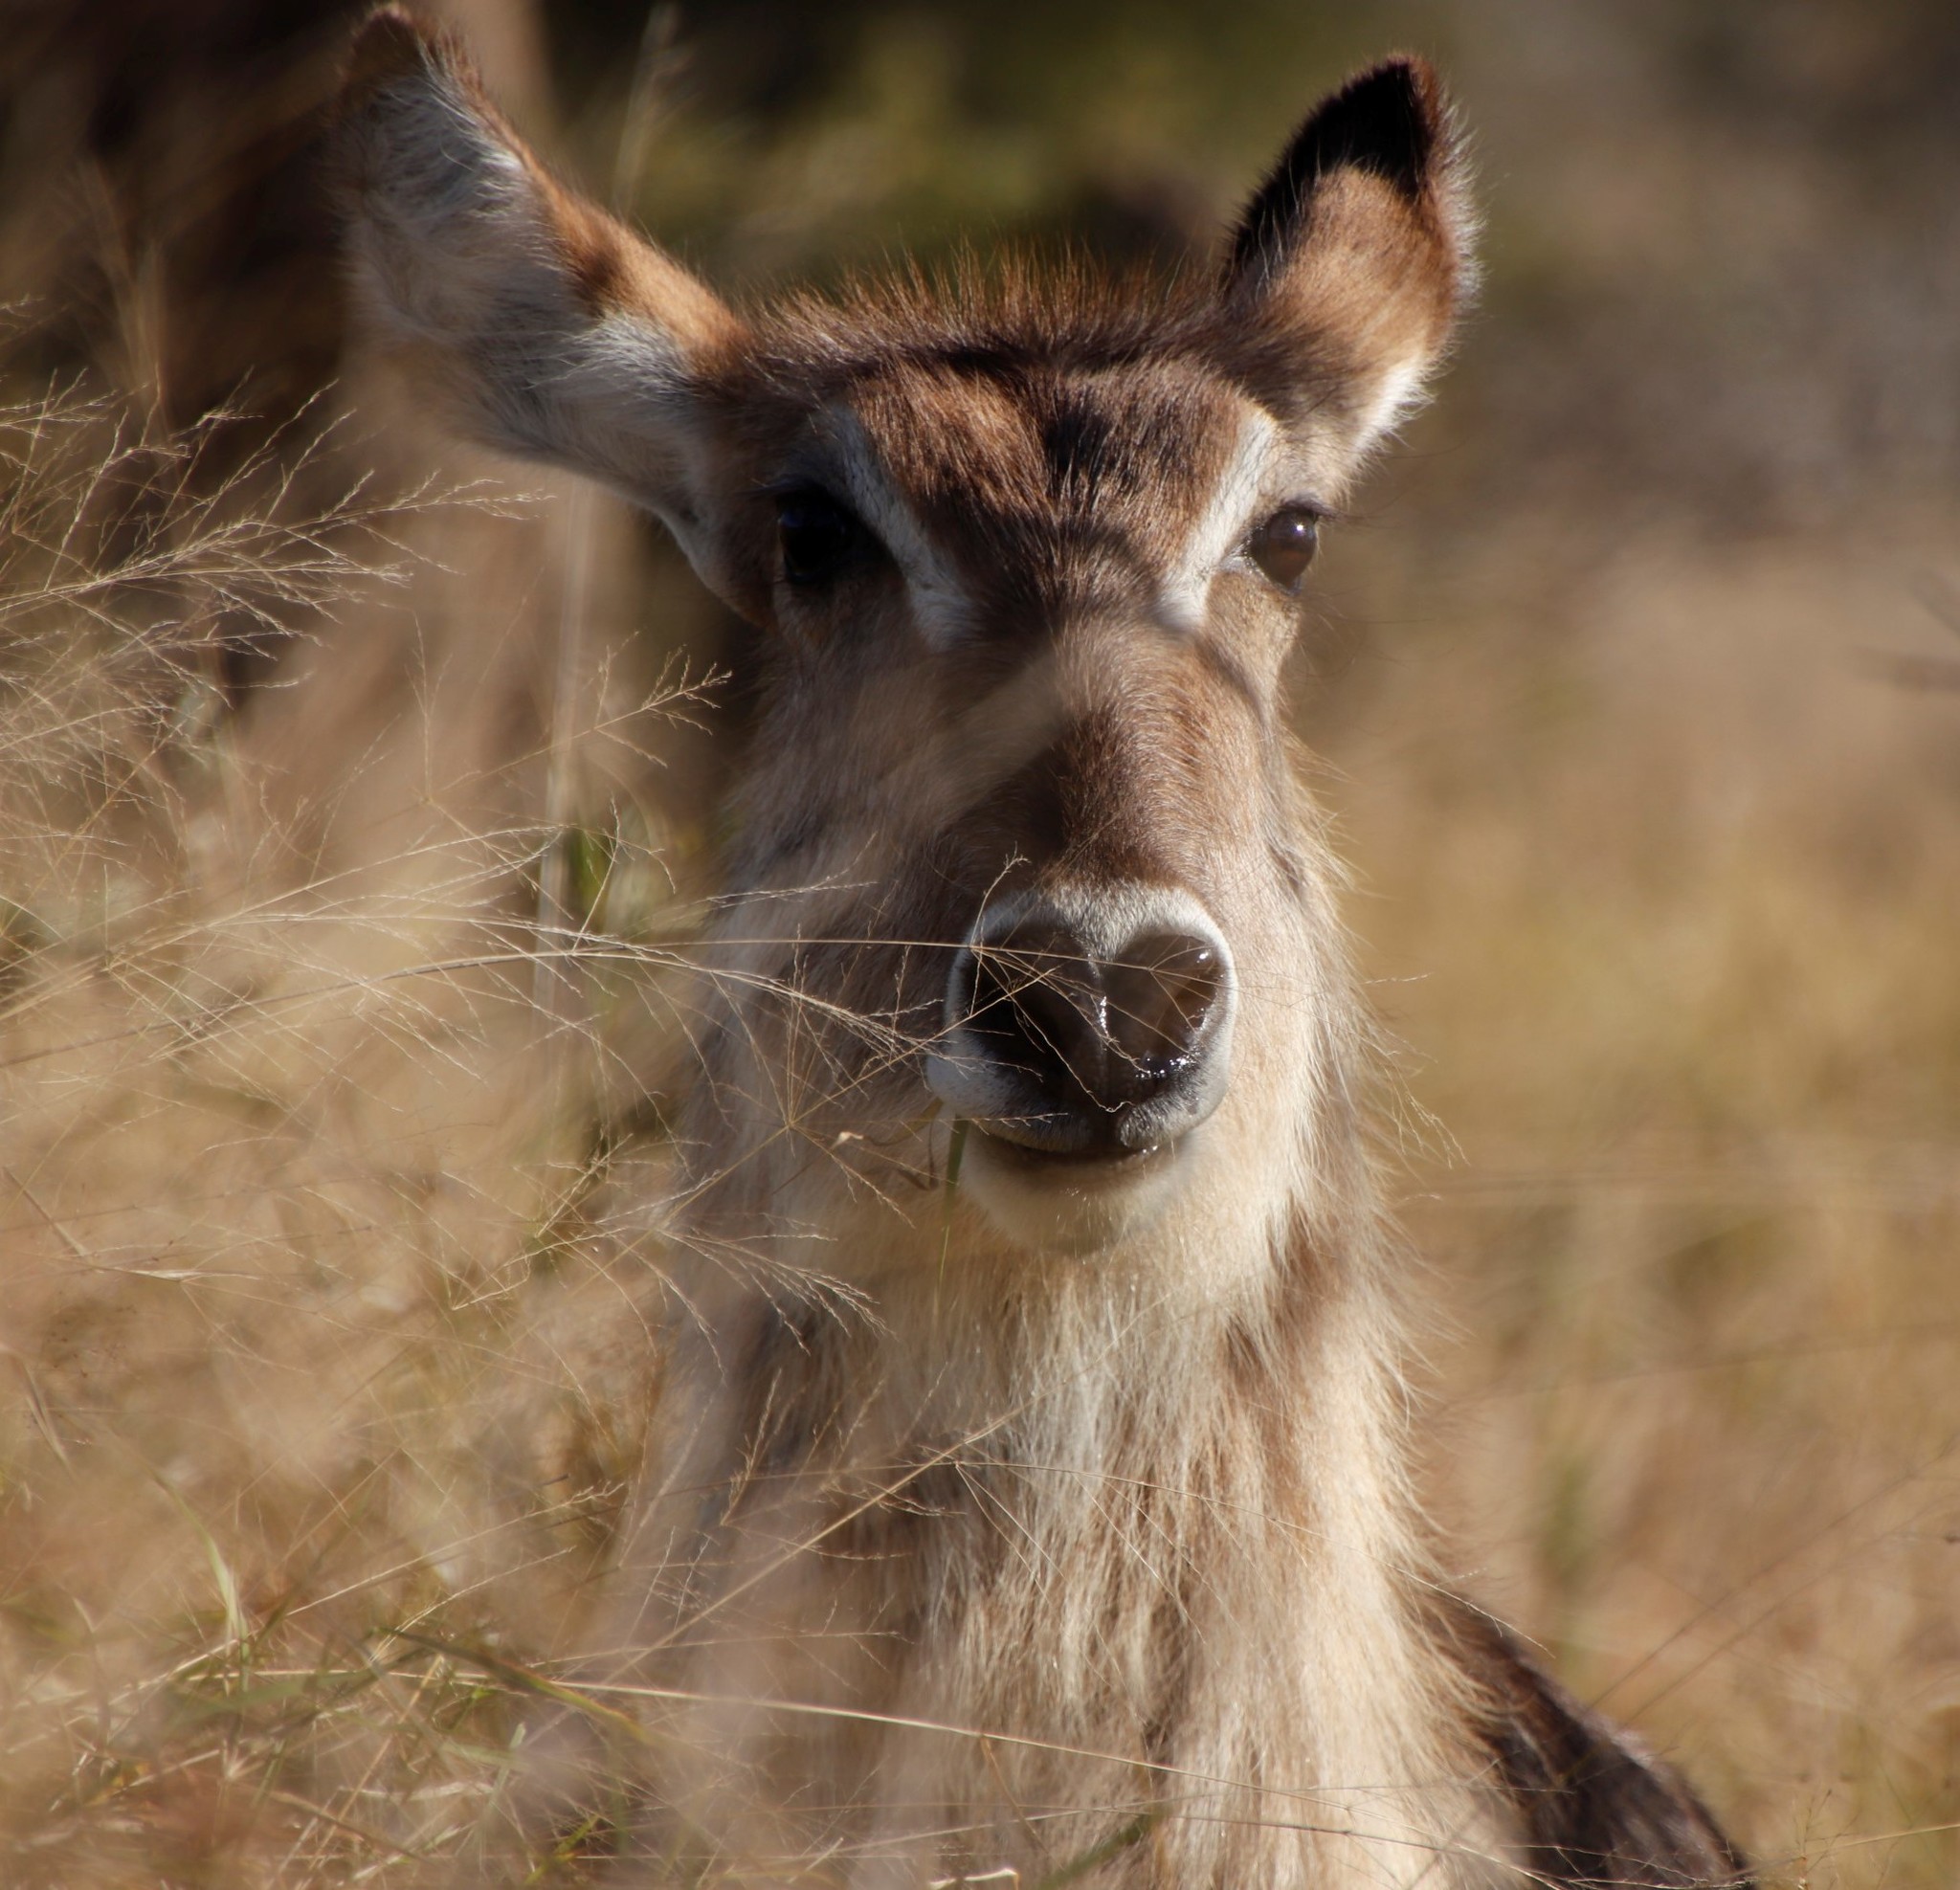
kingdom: Animalia
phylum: Chordata
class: Mammalia
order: Artiodactyla
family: Bovidae
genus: Kobus
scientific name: Kobus ellipsiprymnus
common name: Waterbuck
